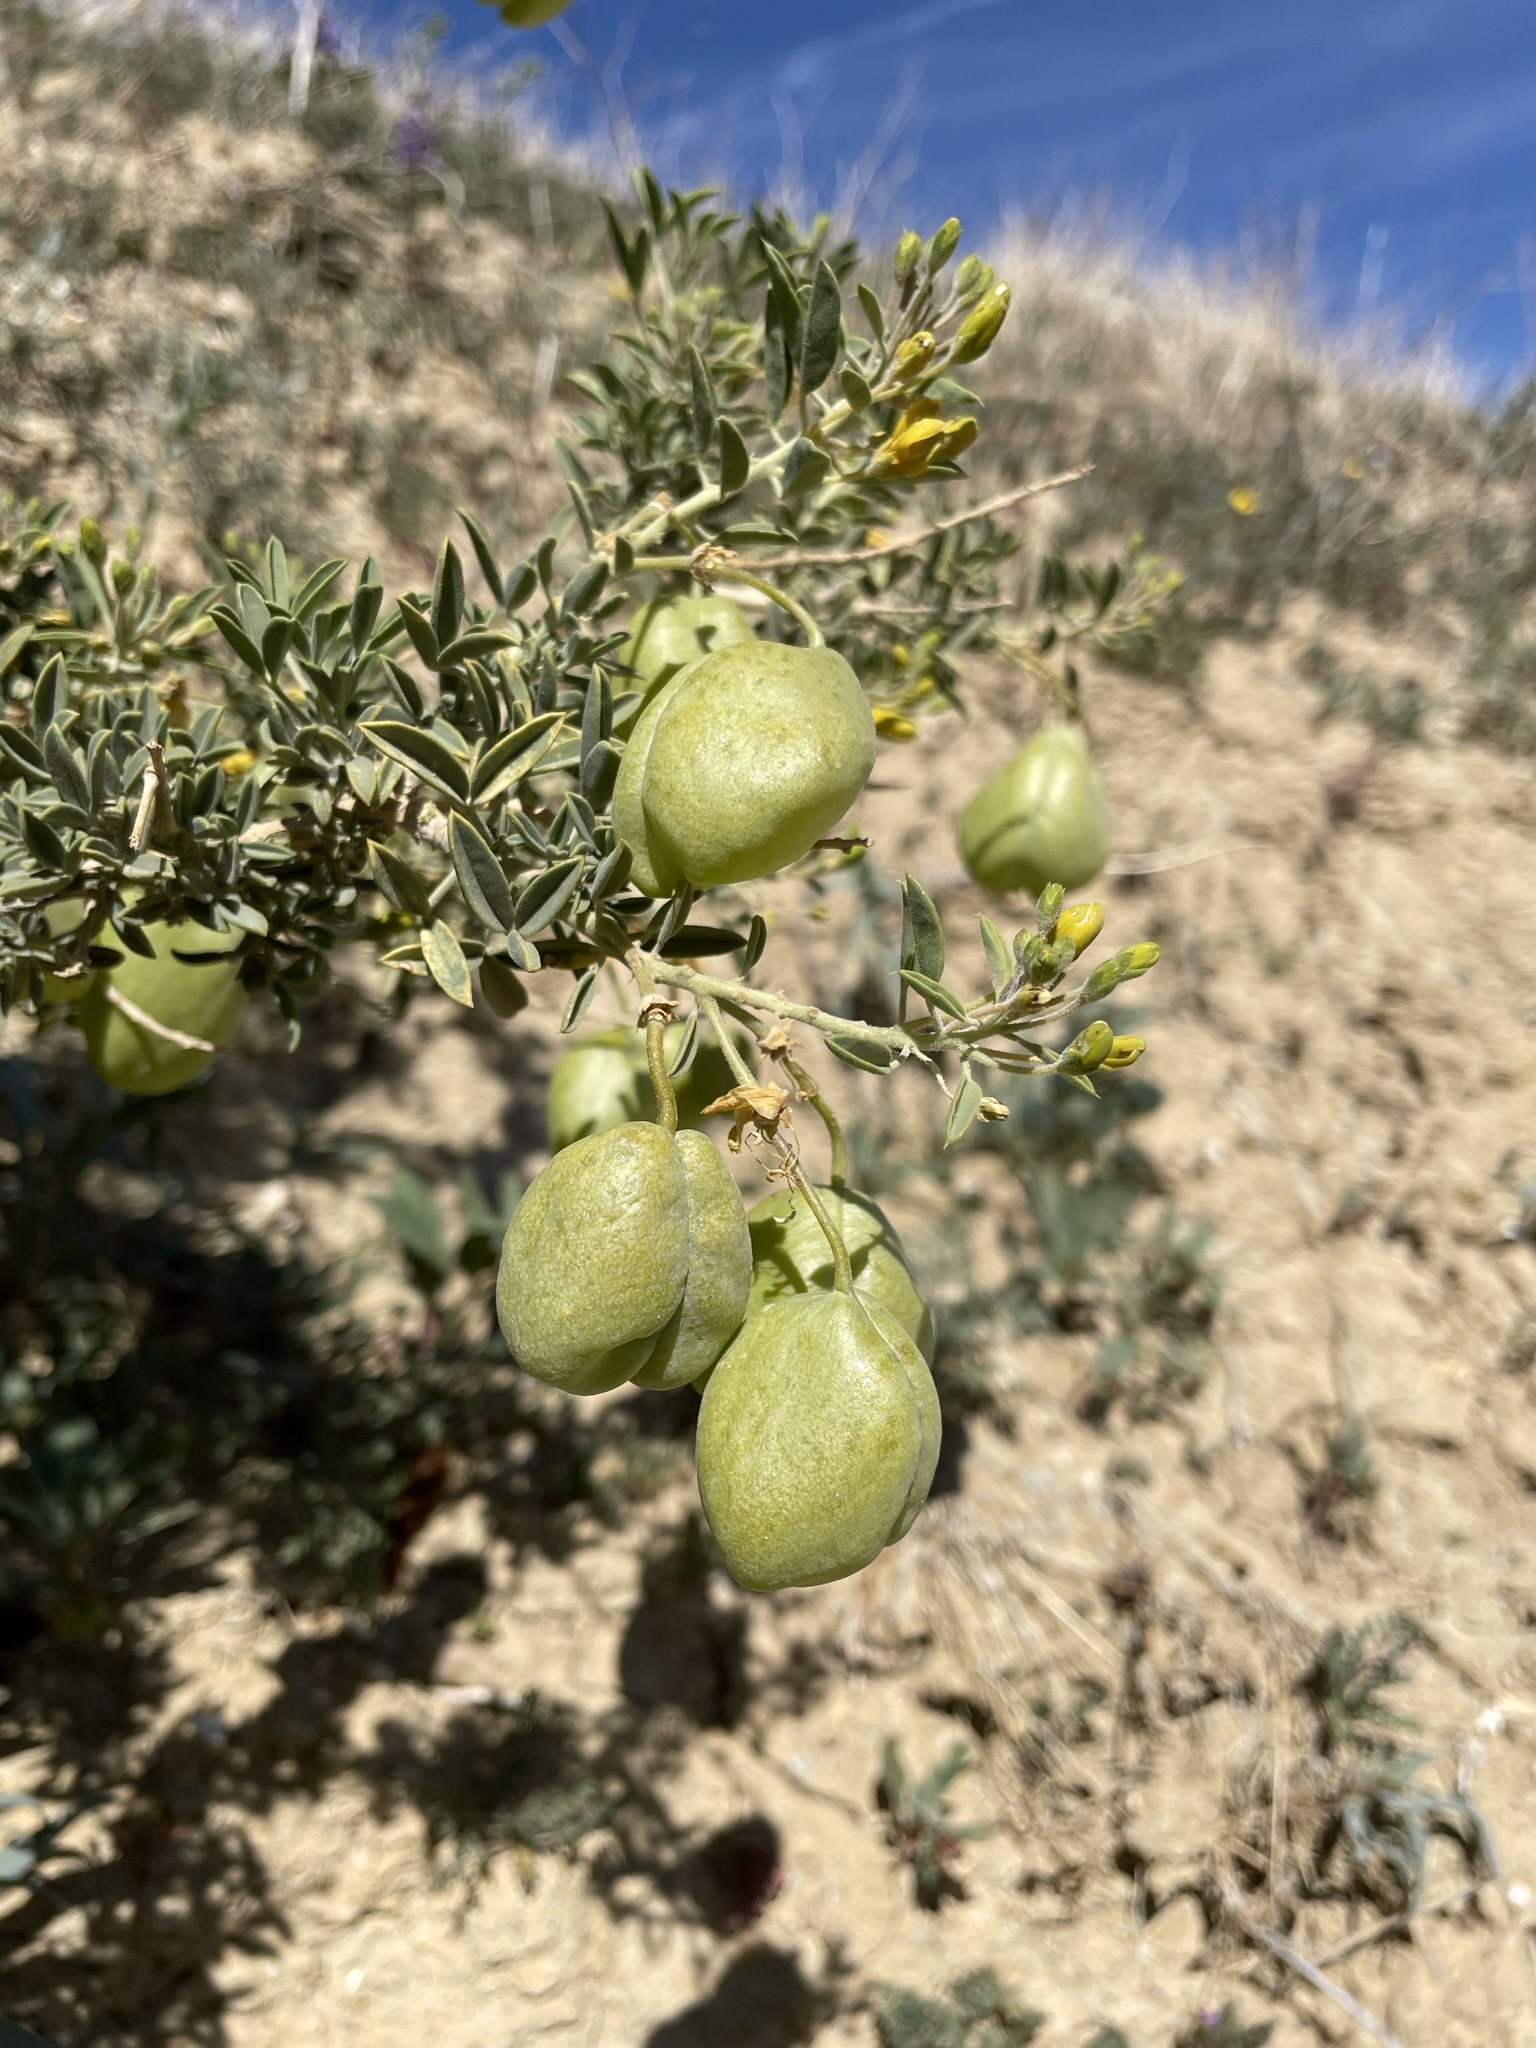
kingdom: Plantae
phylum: Tracheophyta
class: Magnoliopsida
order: Brassicales
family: Cleomaceae
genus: Cleomella
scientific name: Cleomella arborea
